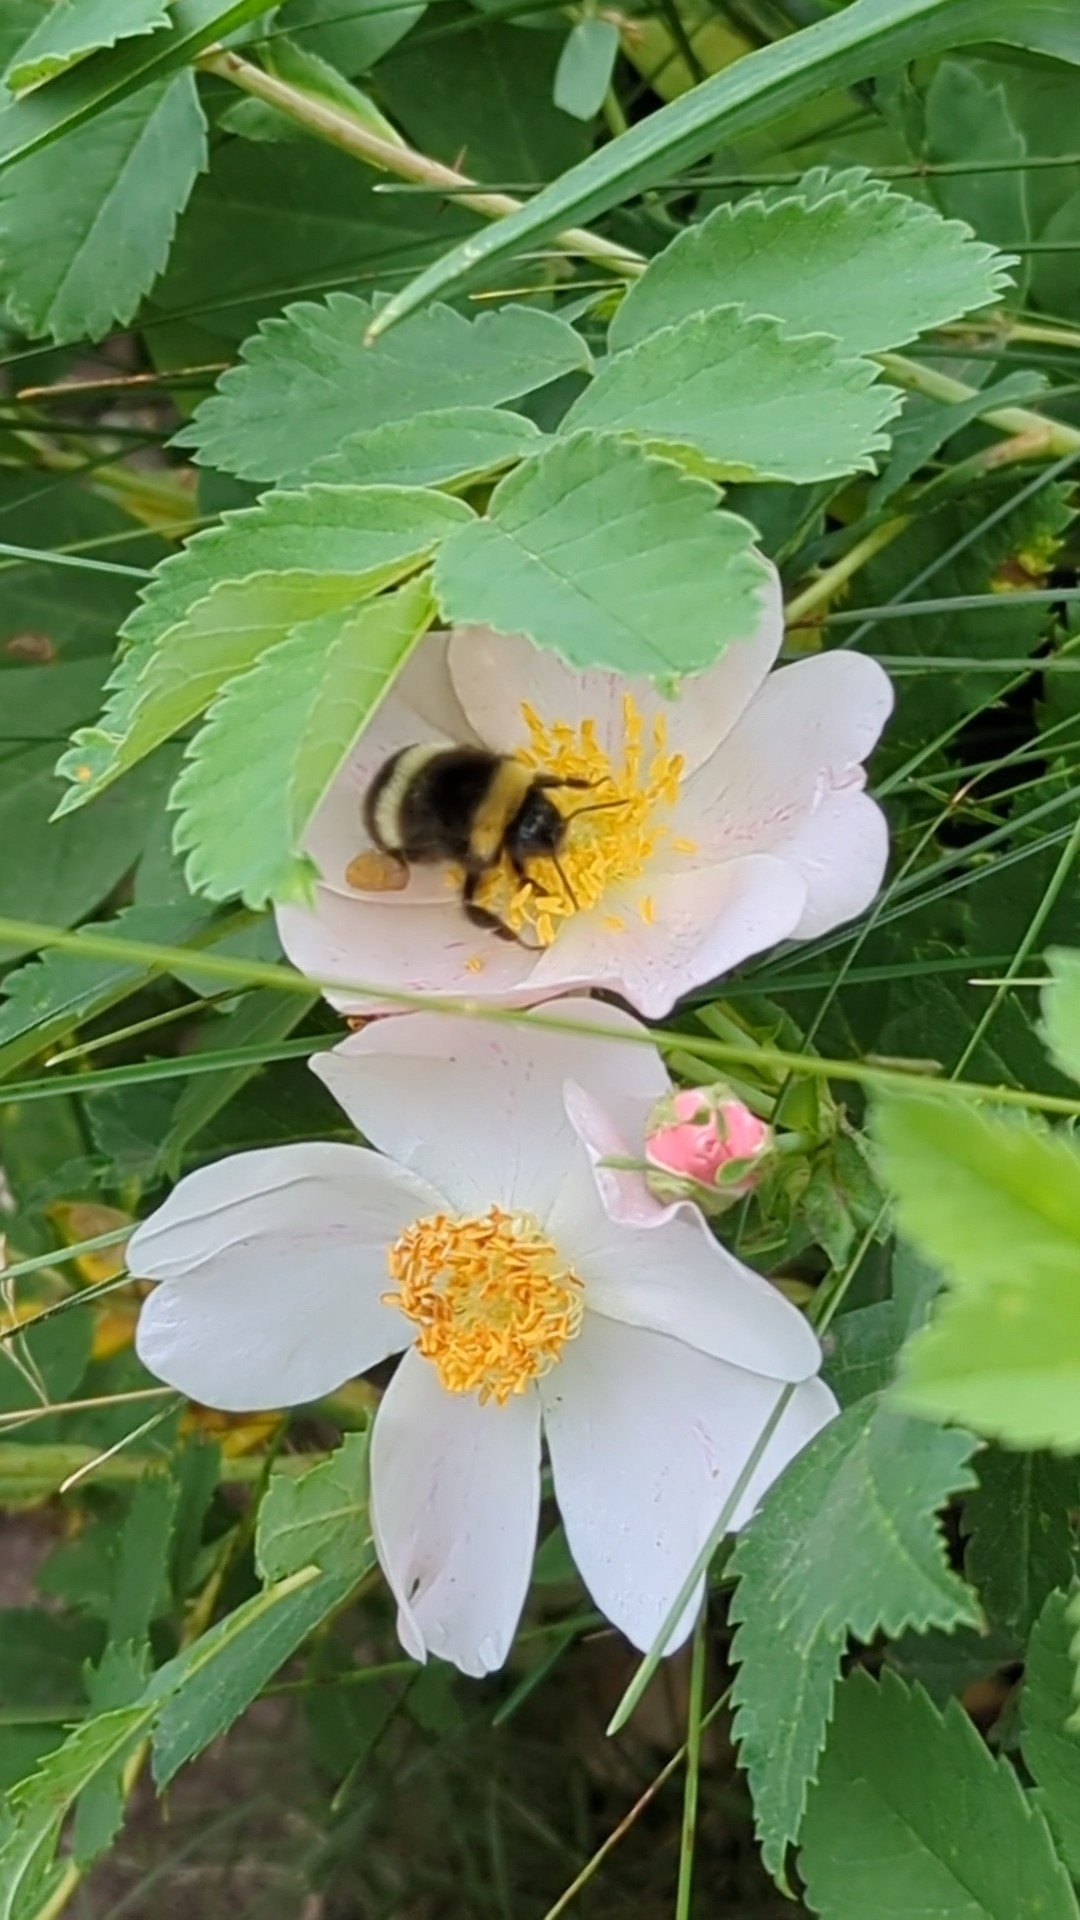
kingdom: Animalia
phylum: Arthropoda
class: Insecta
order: Hymenoptera
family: Apidae
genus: Bombus
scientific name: Bombus cryptarum
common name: Cryptic bumblebee
